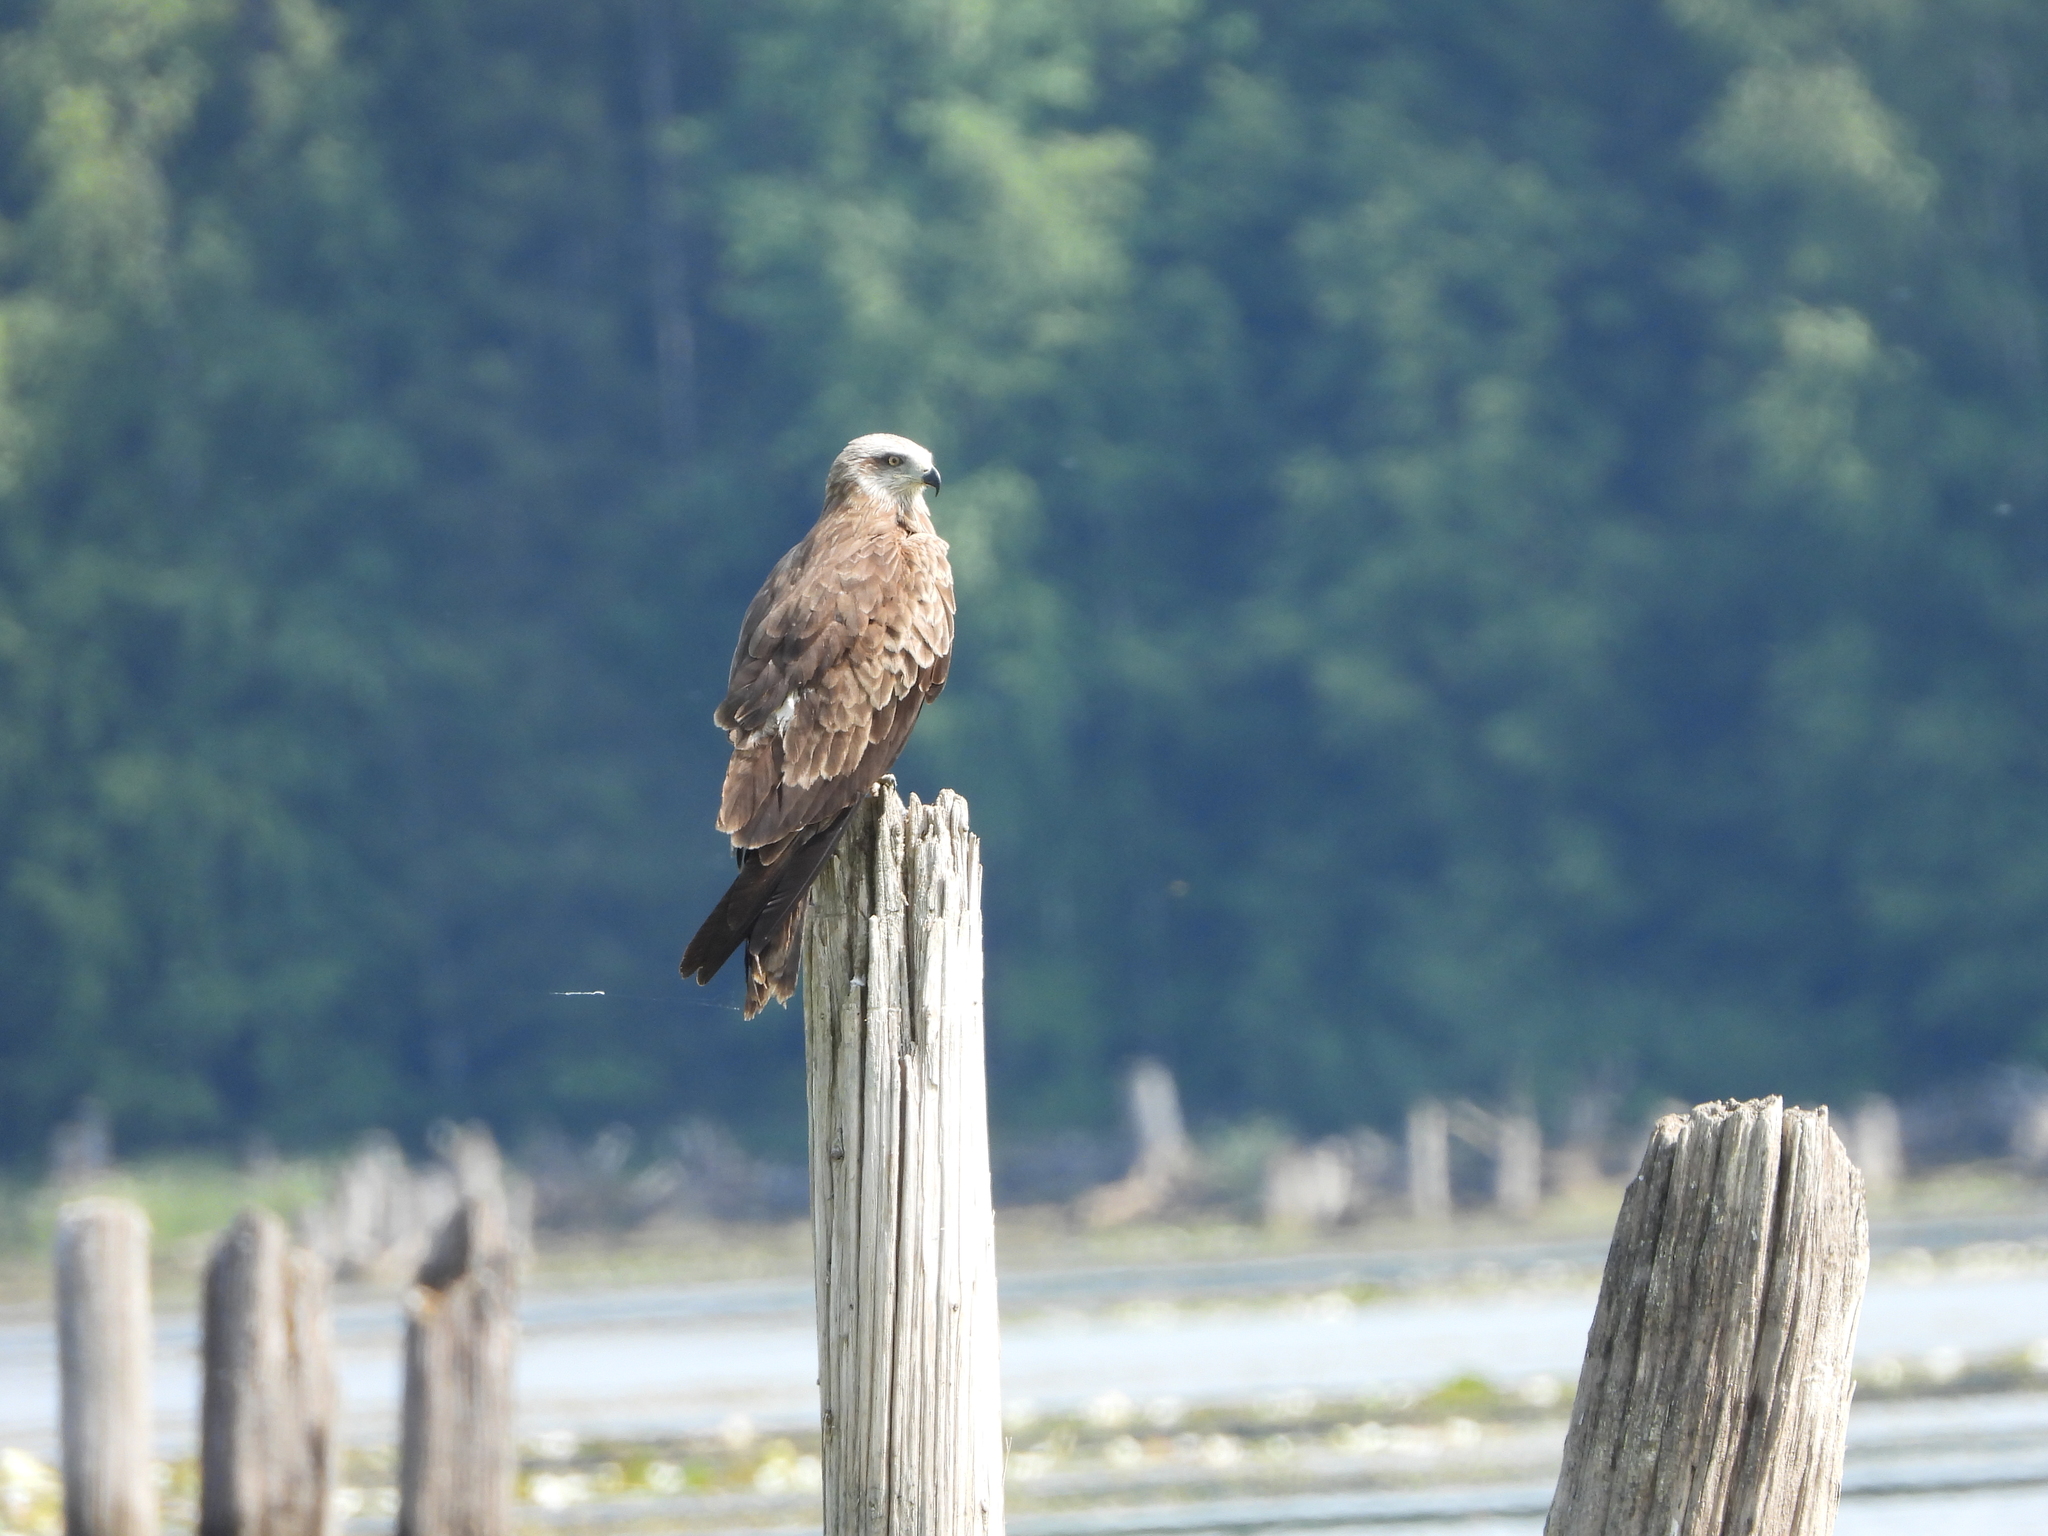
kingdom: Animalia
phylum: Chordata
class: Aves
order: Accipitriformes
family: Accipitridae
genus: Milvus
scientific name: Milvus migrans
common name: Black kite
